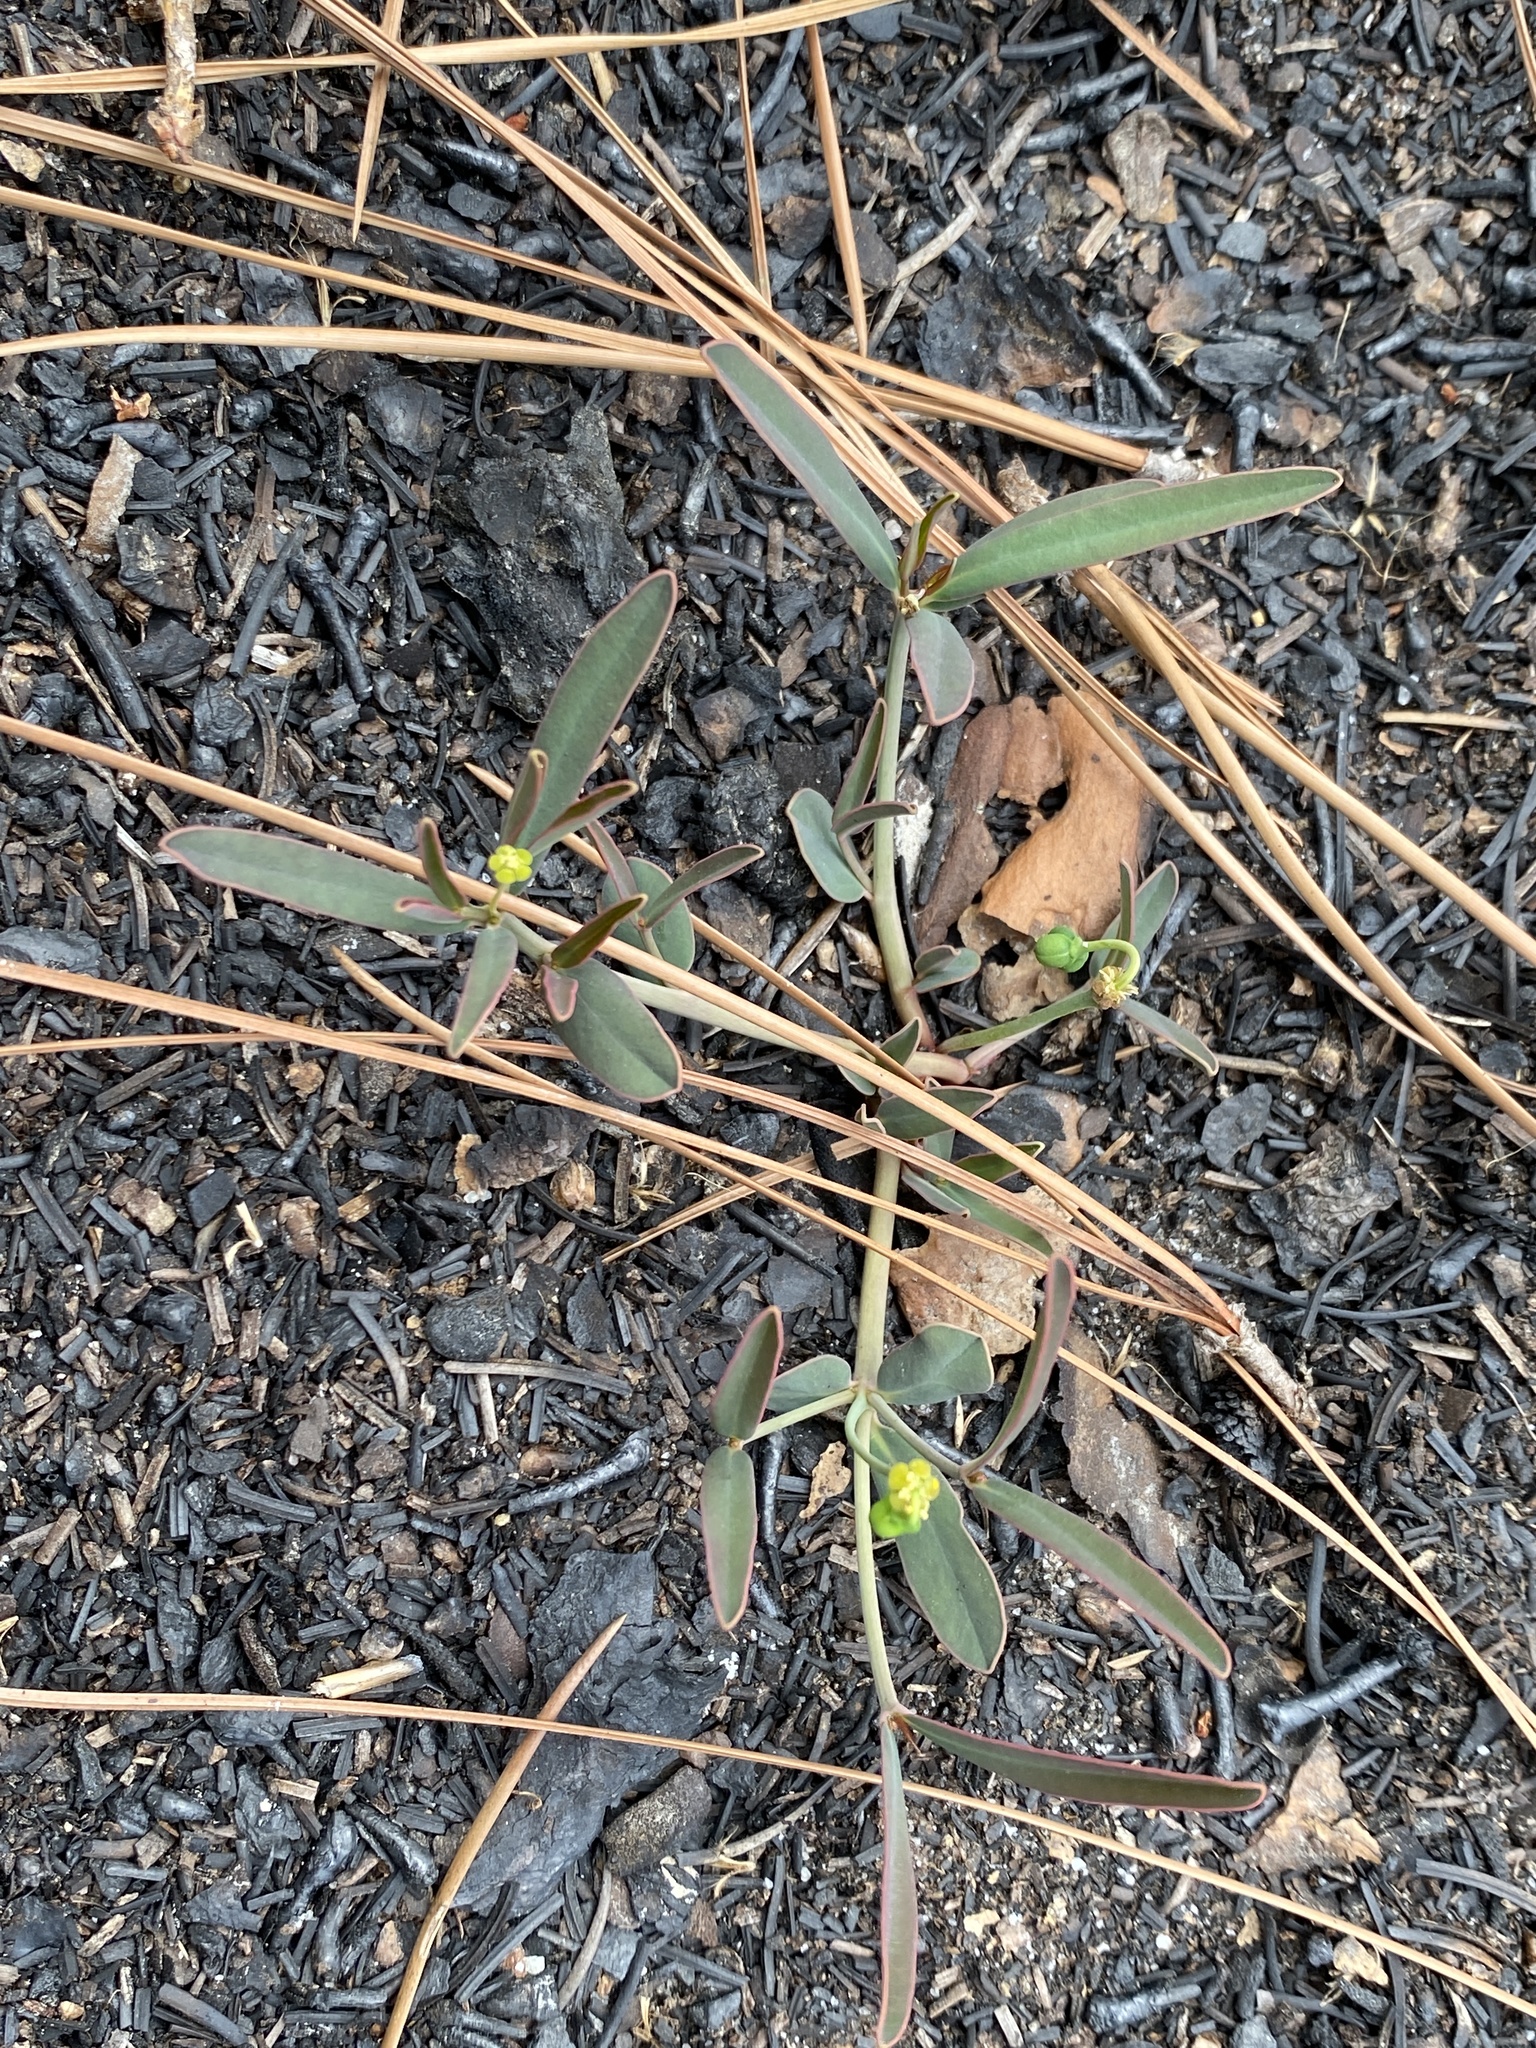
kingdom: Plantae
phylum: Tracheophyta
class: Magnoliopsida
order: Malpighiales
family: Euphorbiaceae
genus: Euphorbia
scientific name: Euphorbia ipecacuanhae
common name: Carolina ipecac
